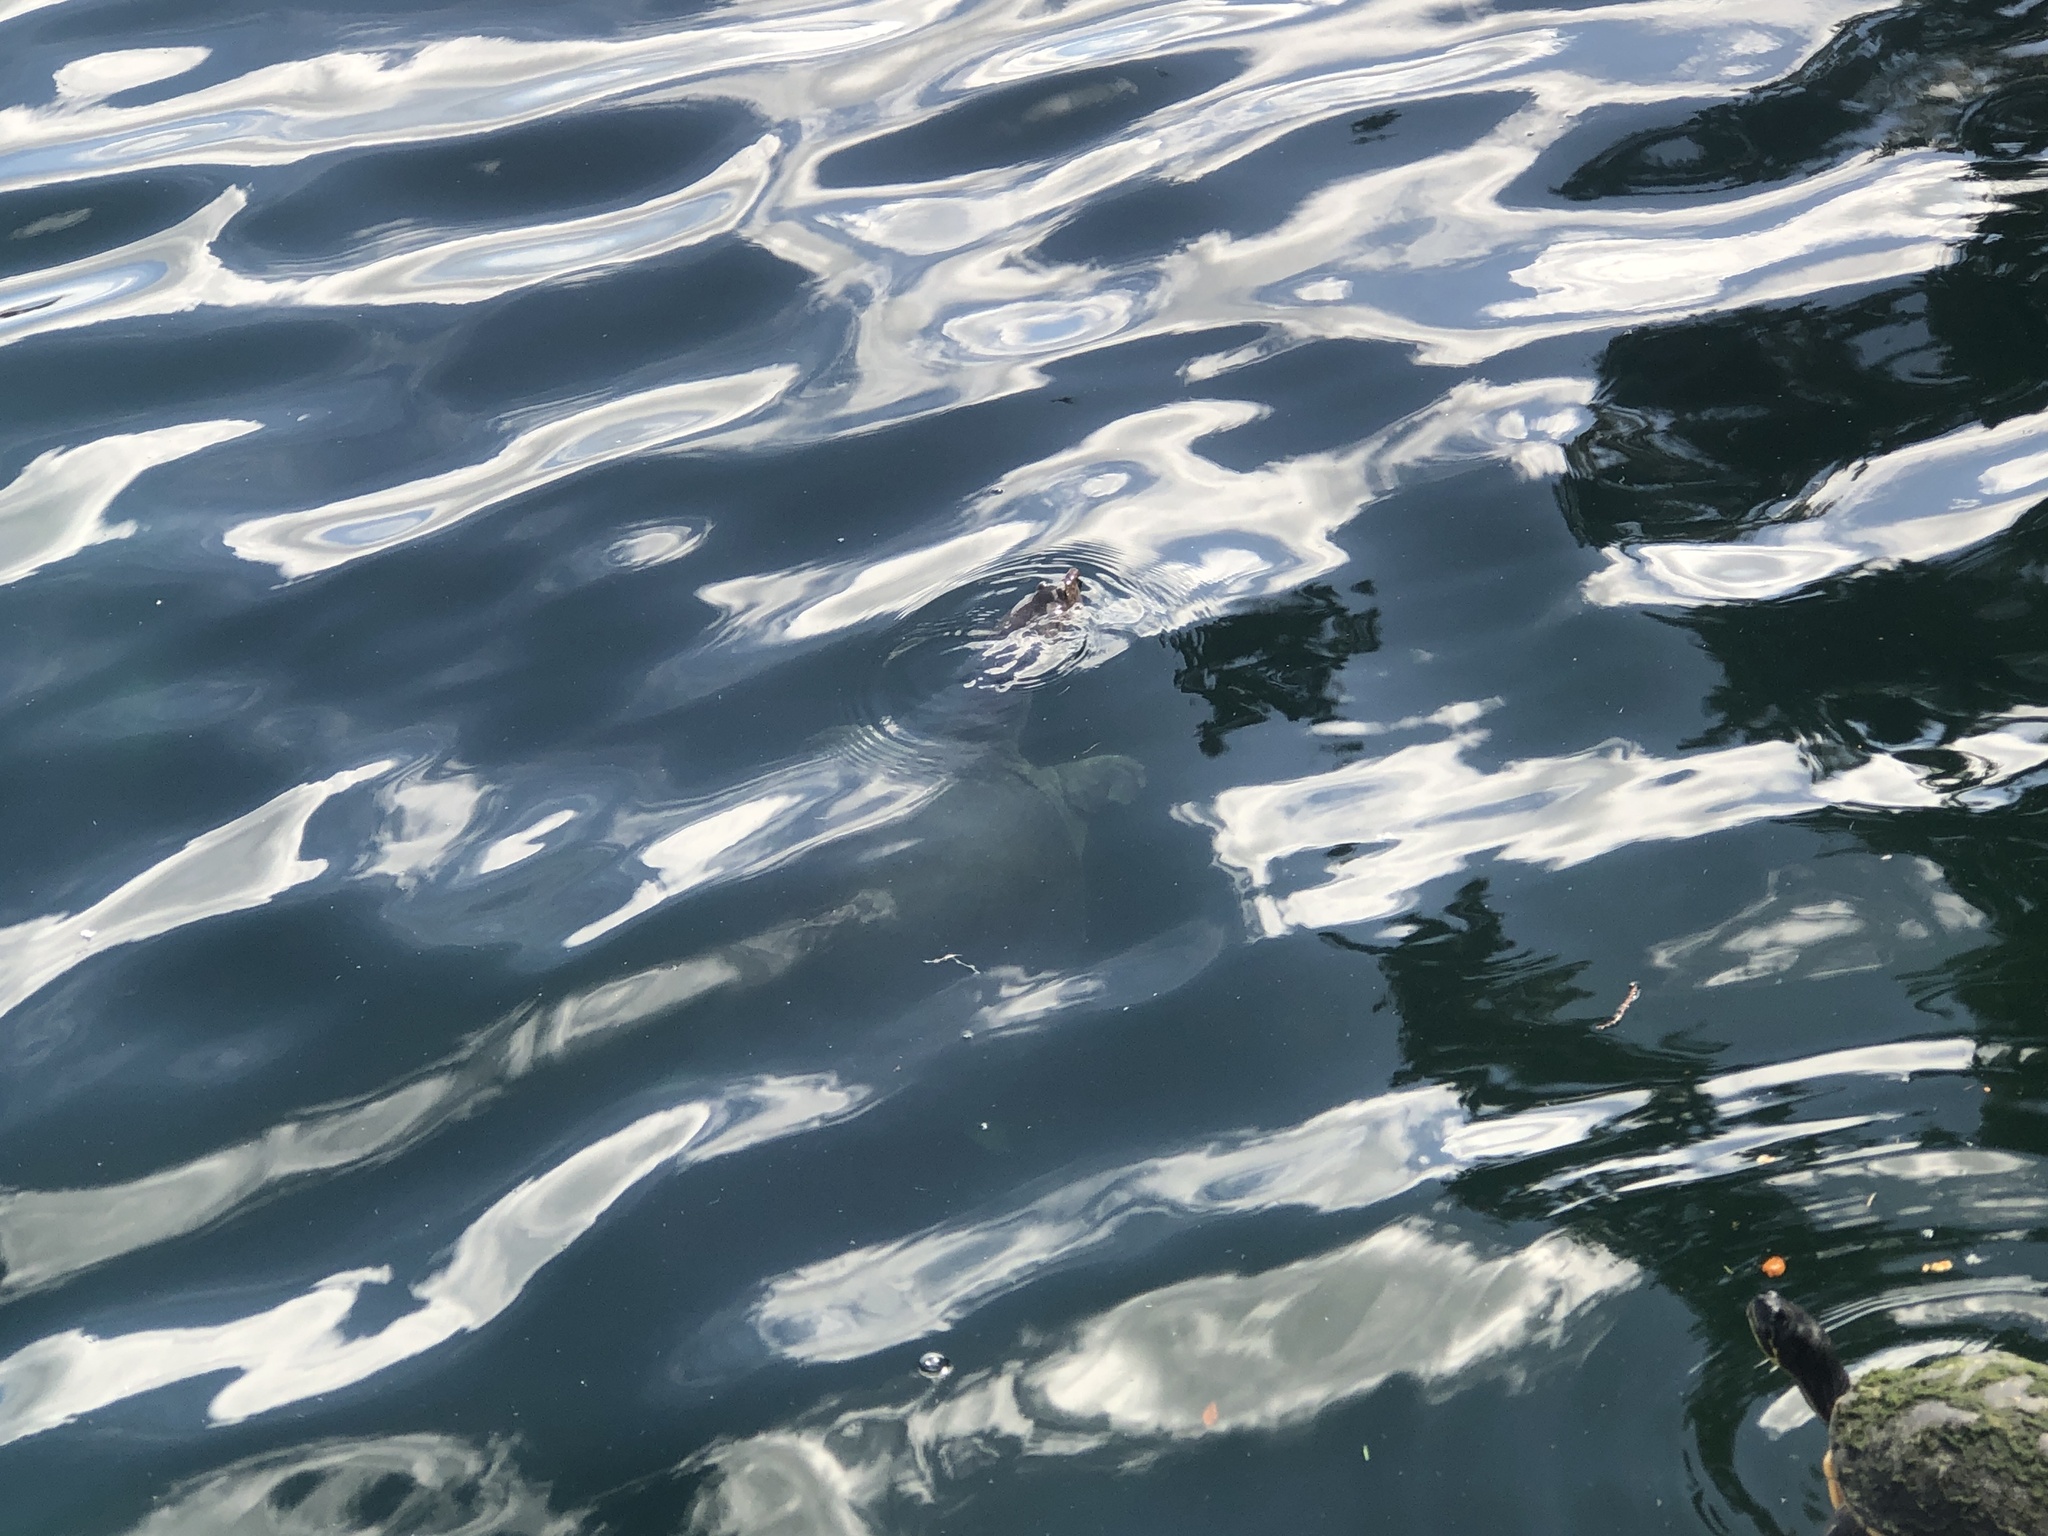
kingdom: Animalia
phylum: Chordata
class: Testudines
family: Trionychidae
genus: Apalone
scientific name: Apalone ferox
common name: Florida softshell turtle
